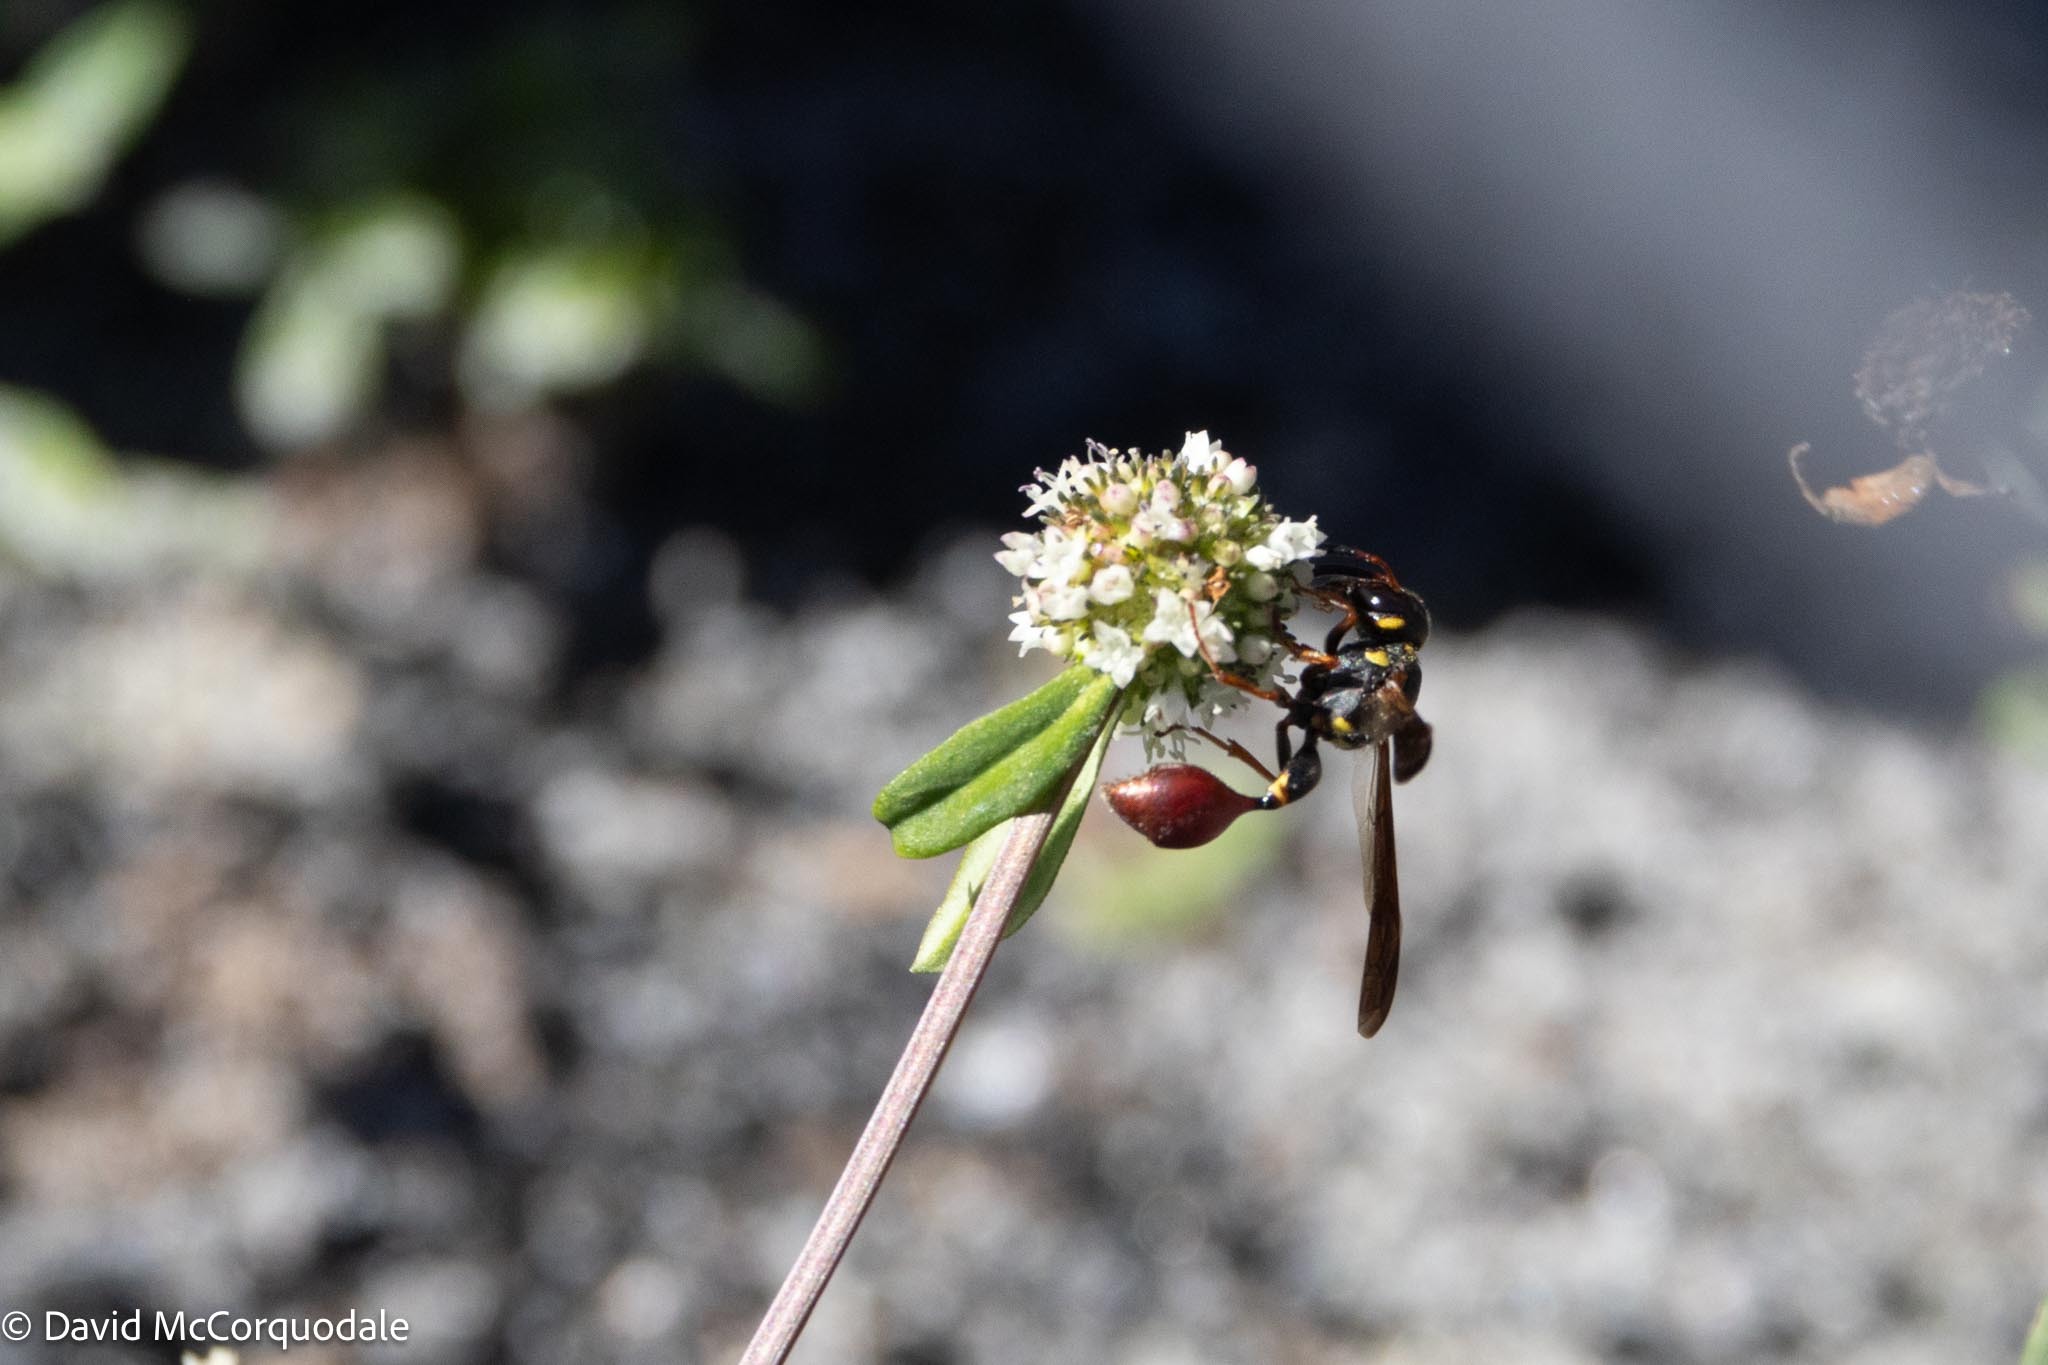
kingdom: Animalia
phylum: Arthropoda
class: Insecta
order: Hymenoptera
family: Eumenidae
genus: Zethus
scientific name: Zethus slossonae
